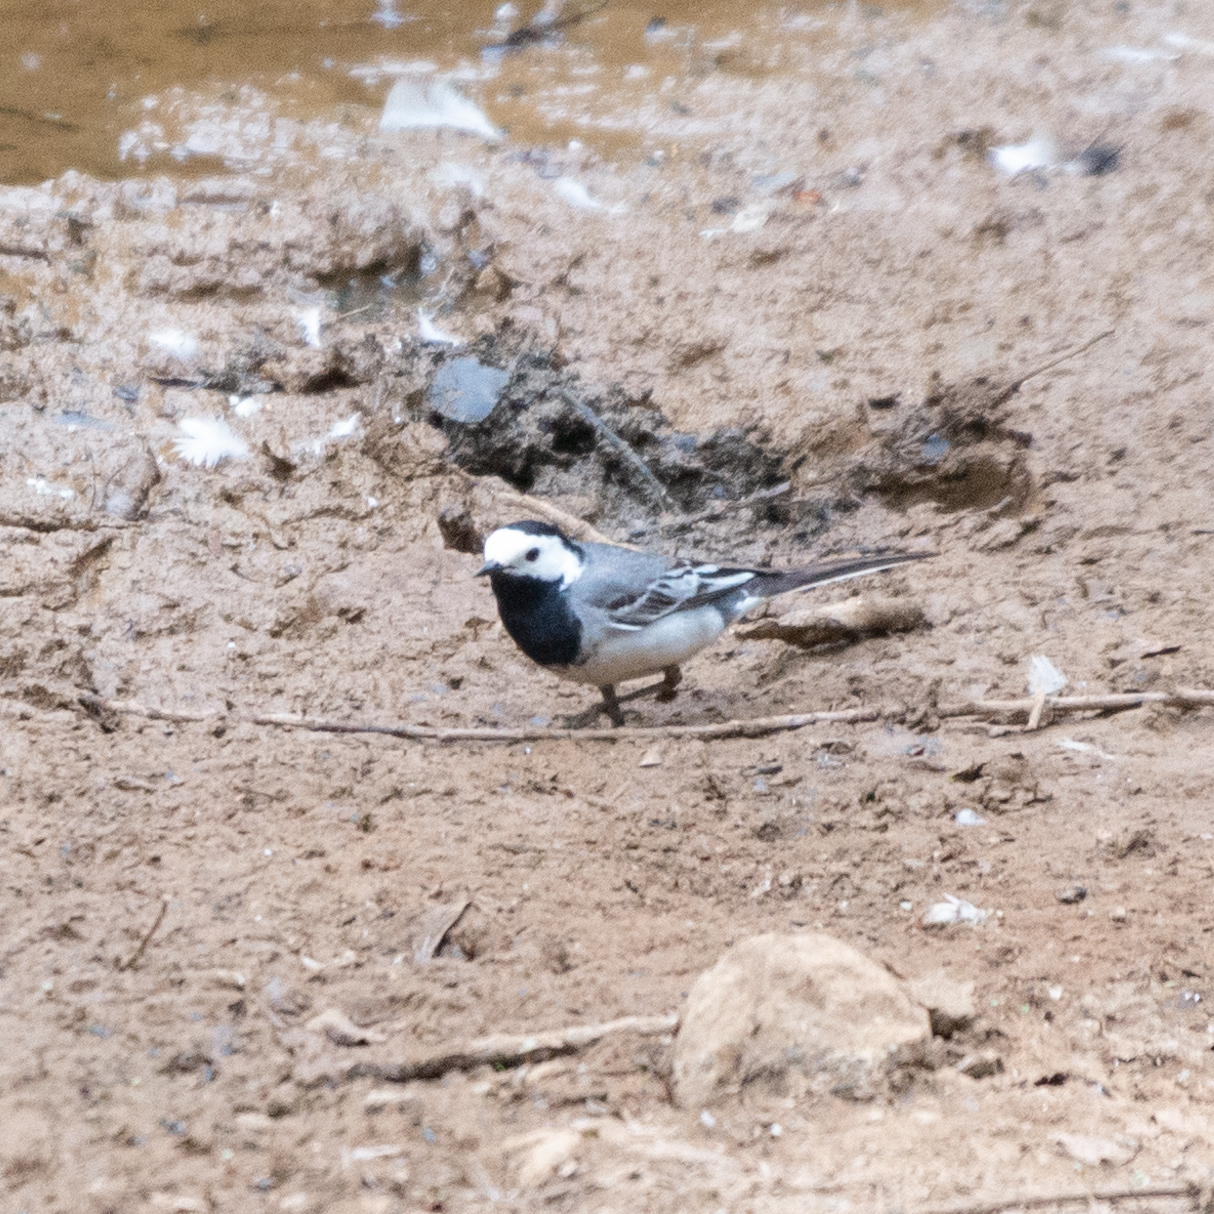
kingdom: Animalia
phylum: Chordata
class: Aves
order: Passeriformes
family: Motacillidae
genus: Motacilla
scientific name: Motacilla alba
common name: White wagtail
